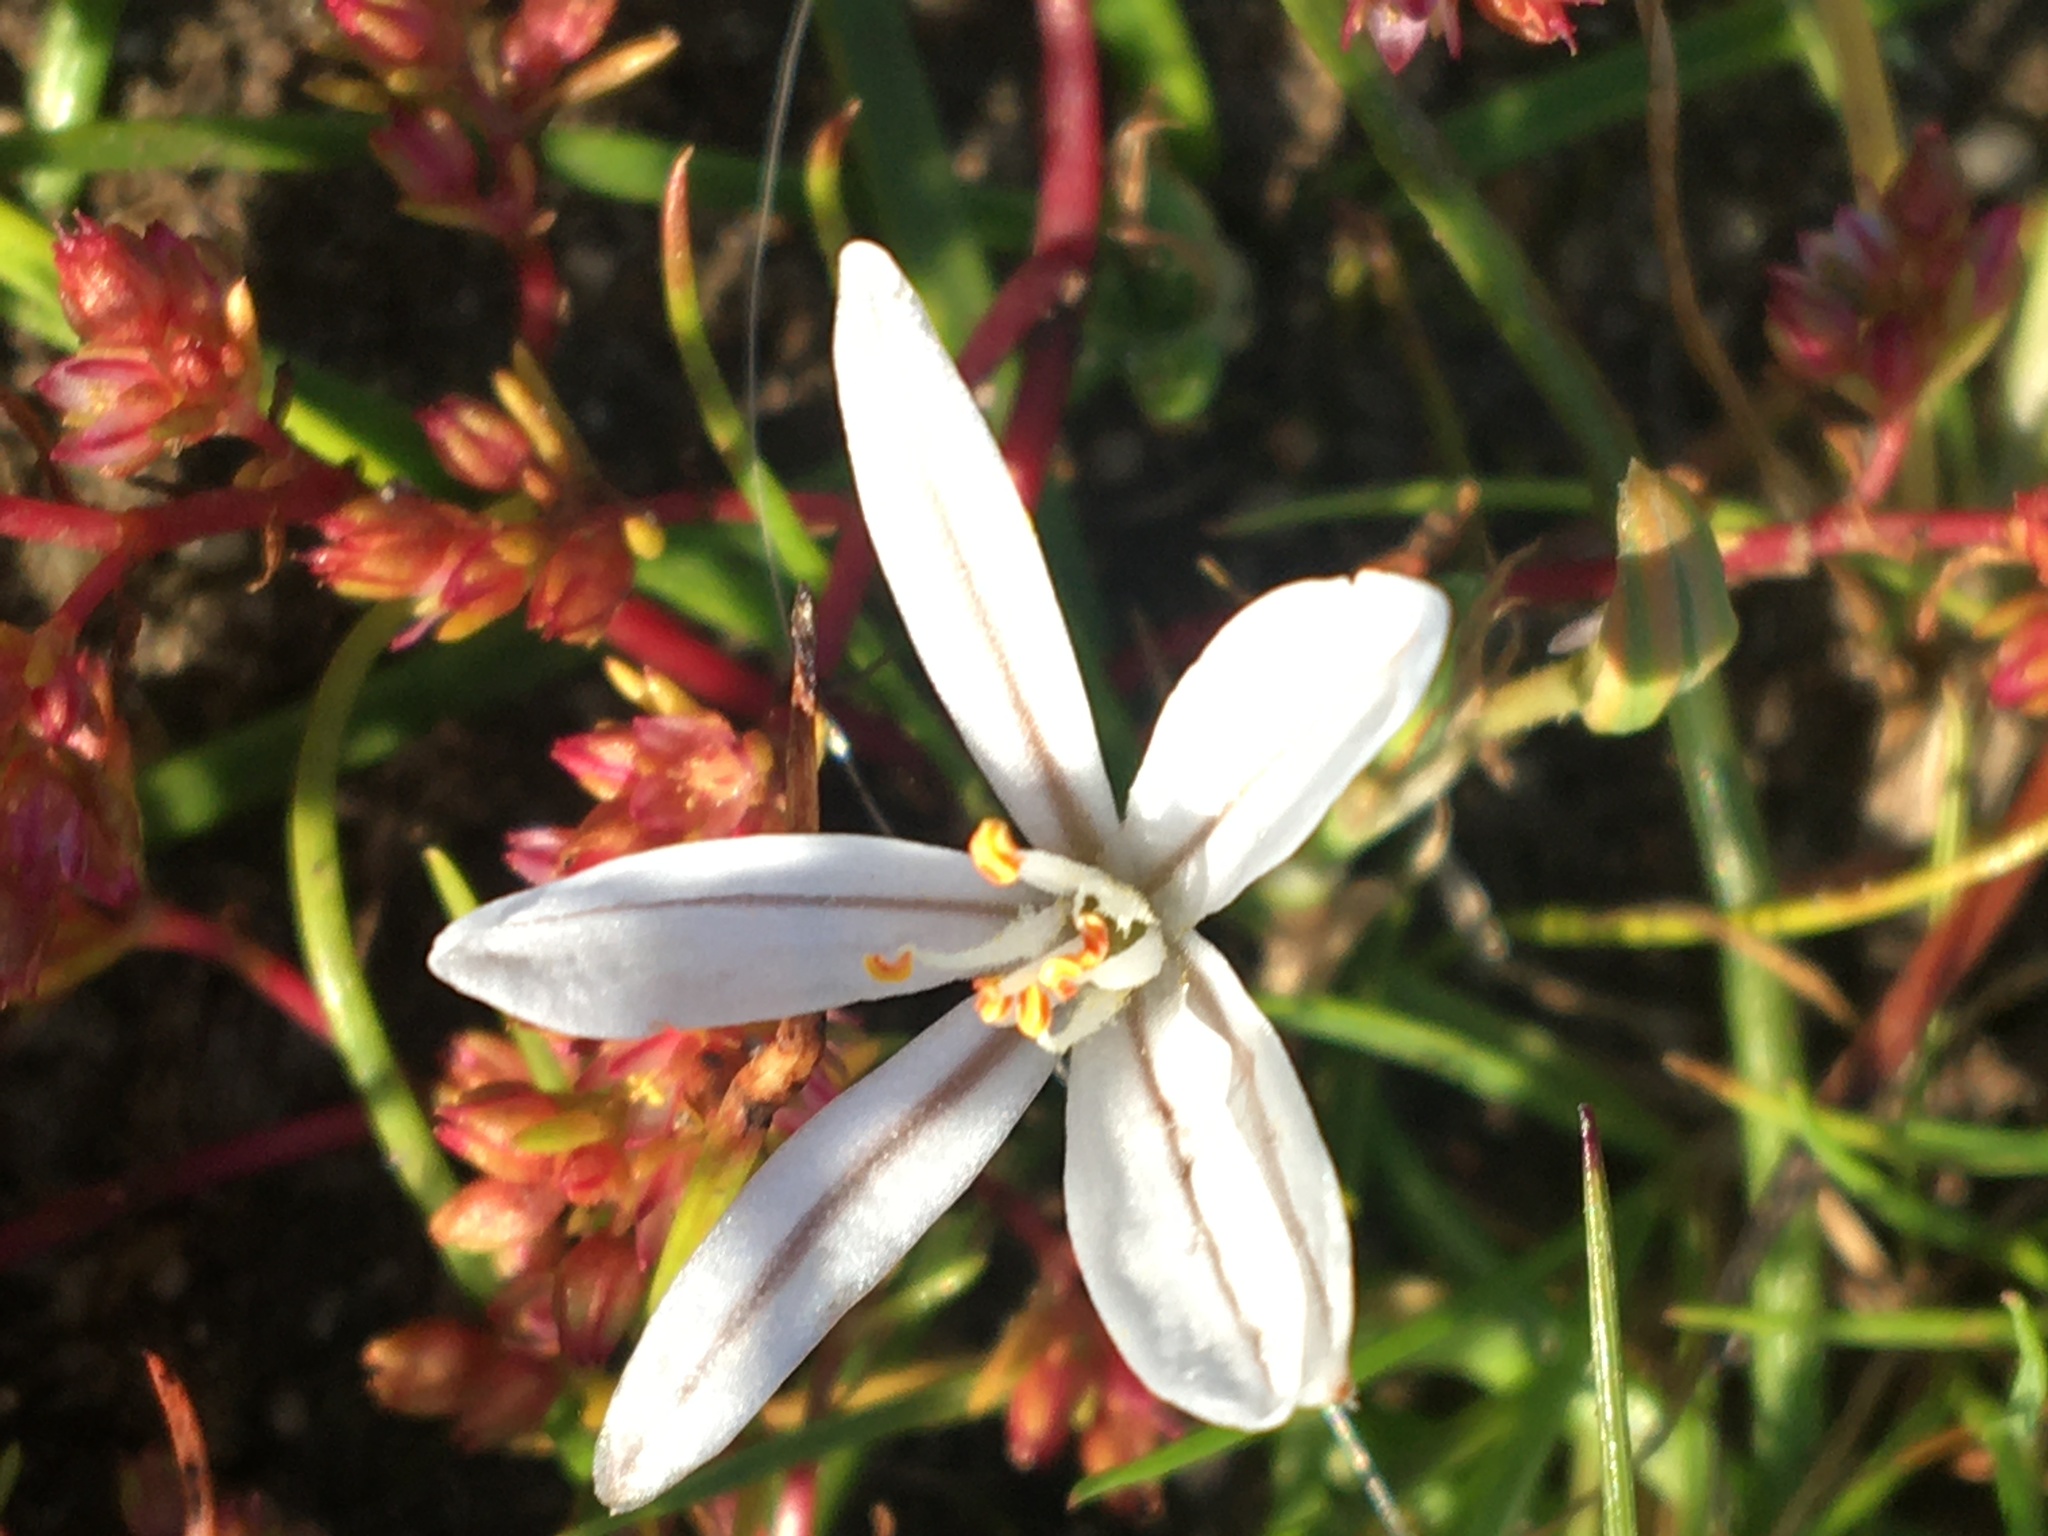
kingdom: Plantae
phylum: Tracheophyta
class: Liliopsida
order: Asparagales
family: Asphodelaceae
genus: Trachyandra
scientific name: Trachyandra hispida
